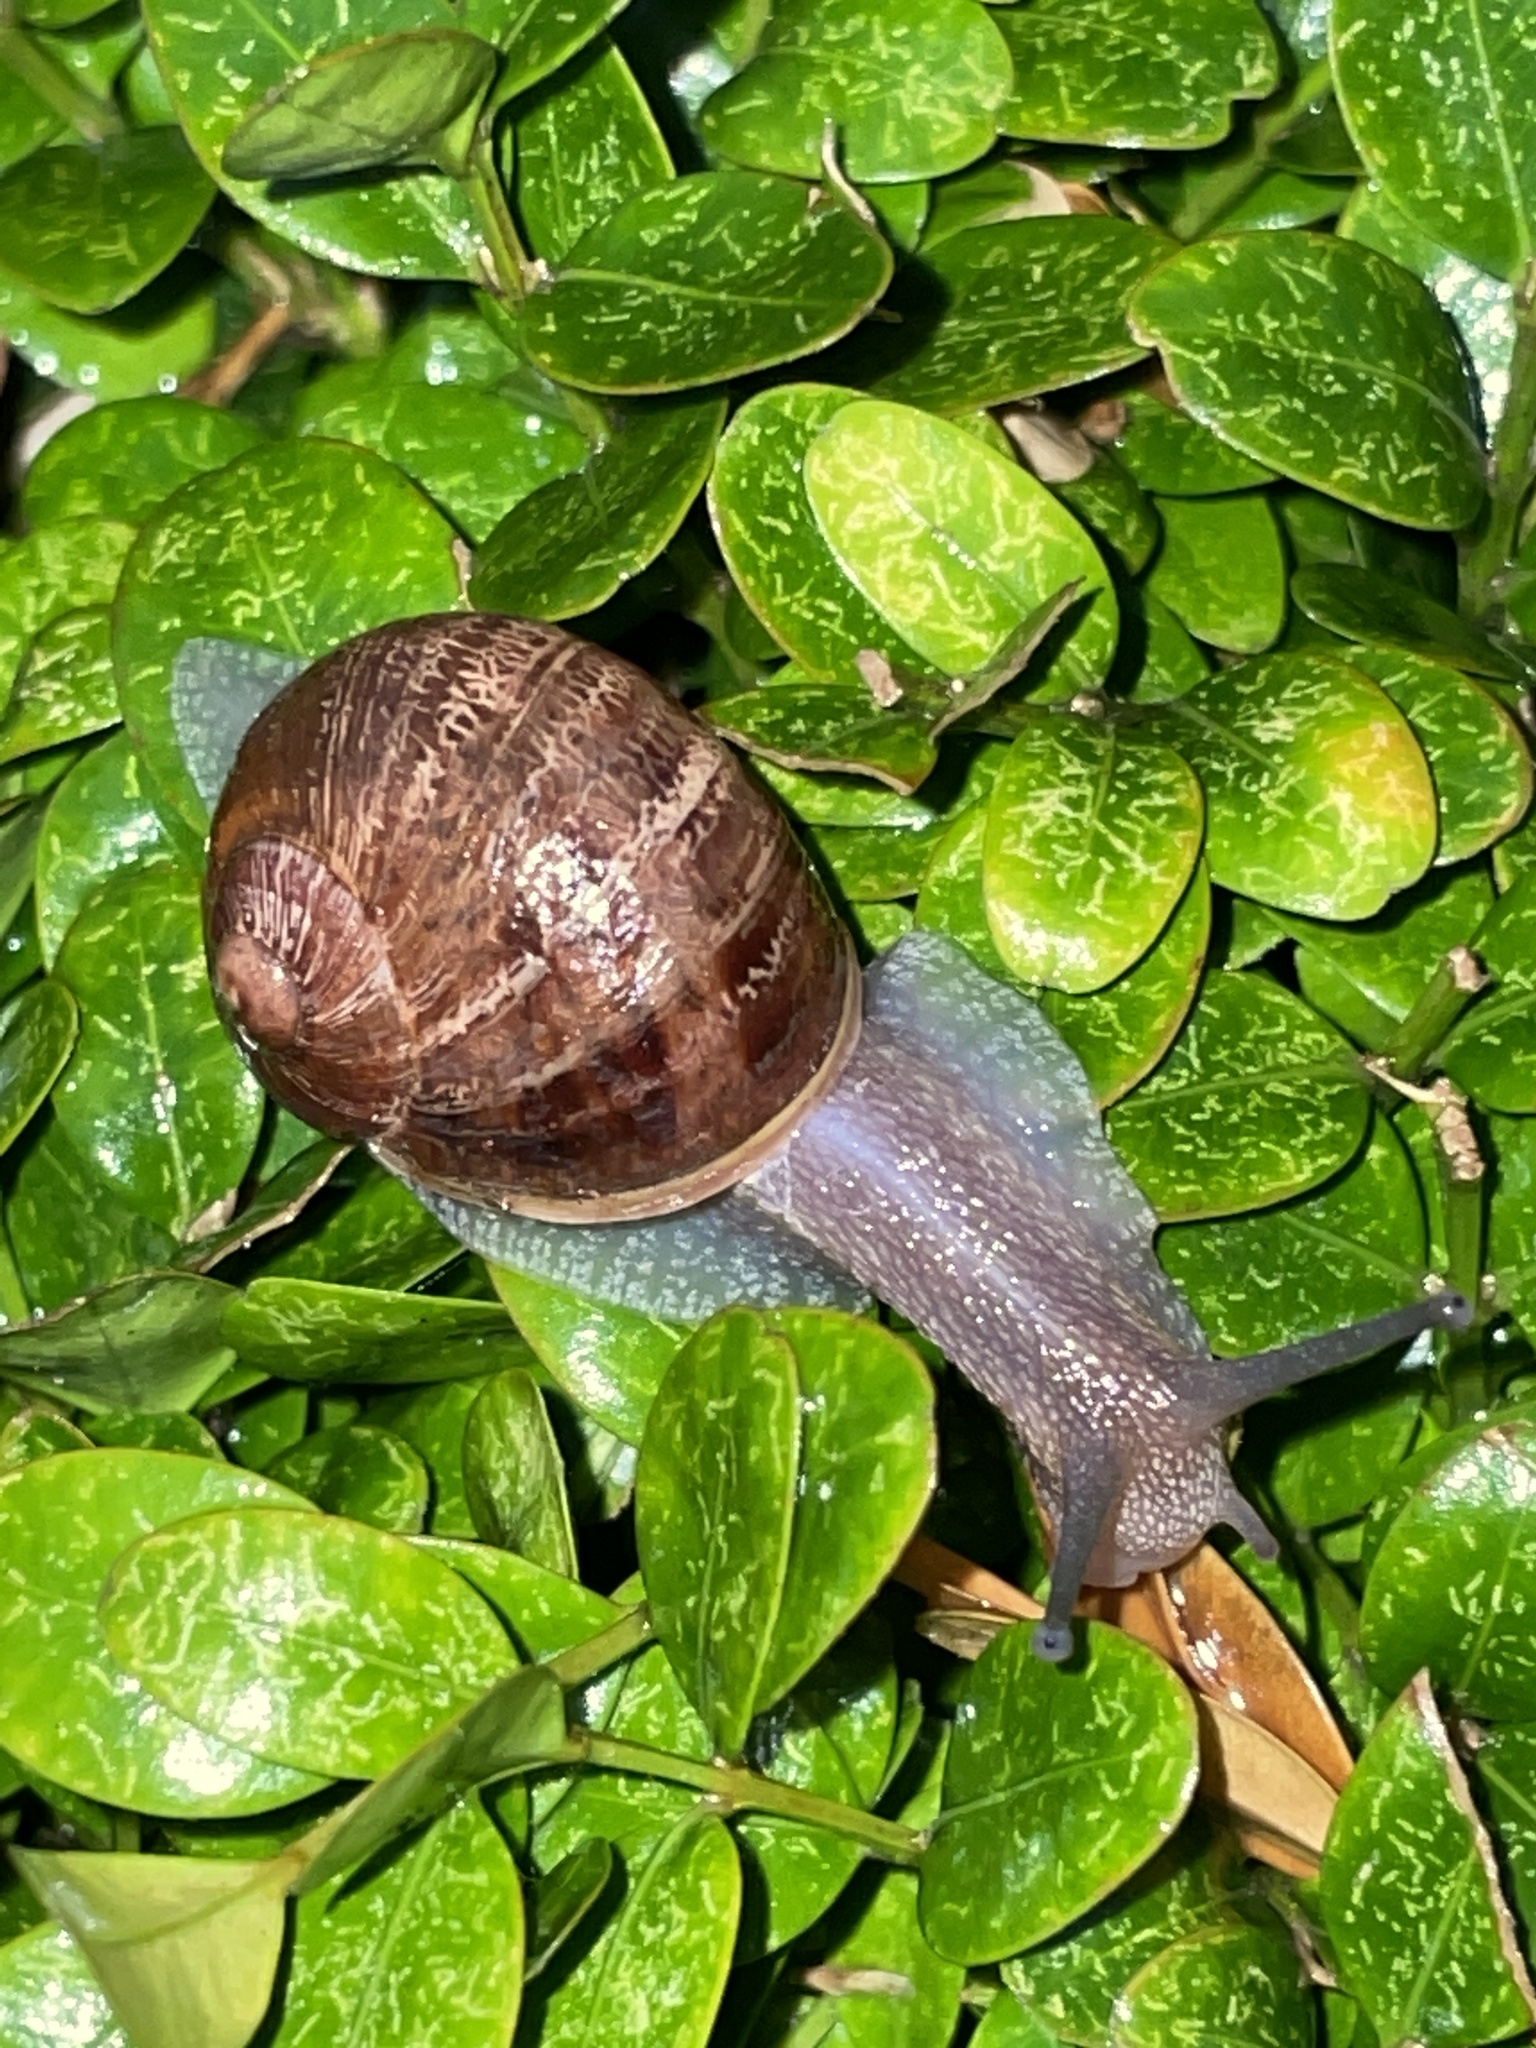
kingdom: Animalia
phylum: Mollusca
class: Gastropoda
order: Stylommatophora
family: Helicidae
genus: Cornu
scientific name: Cornu aspersum
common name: Brown garden snail
